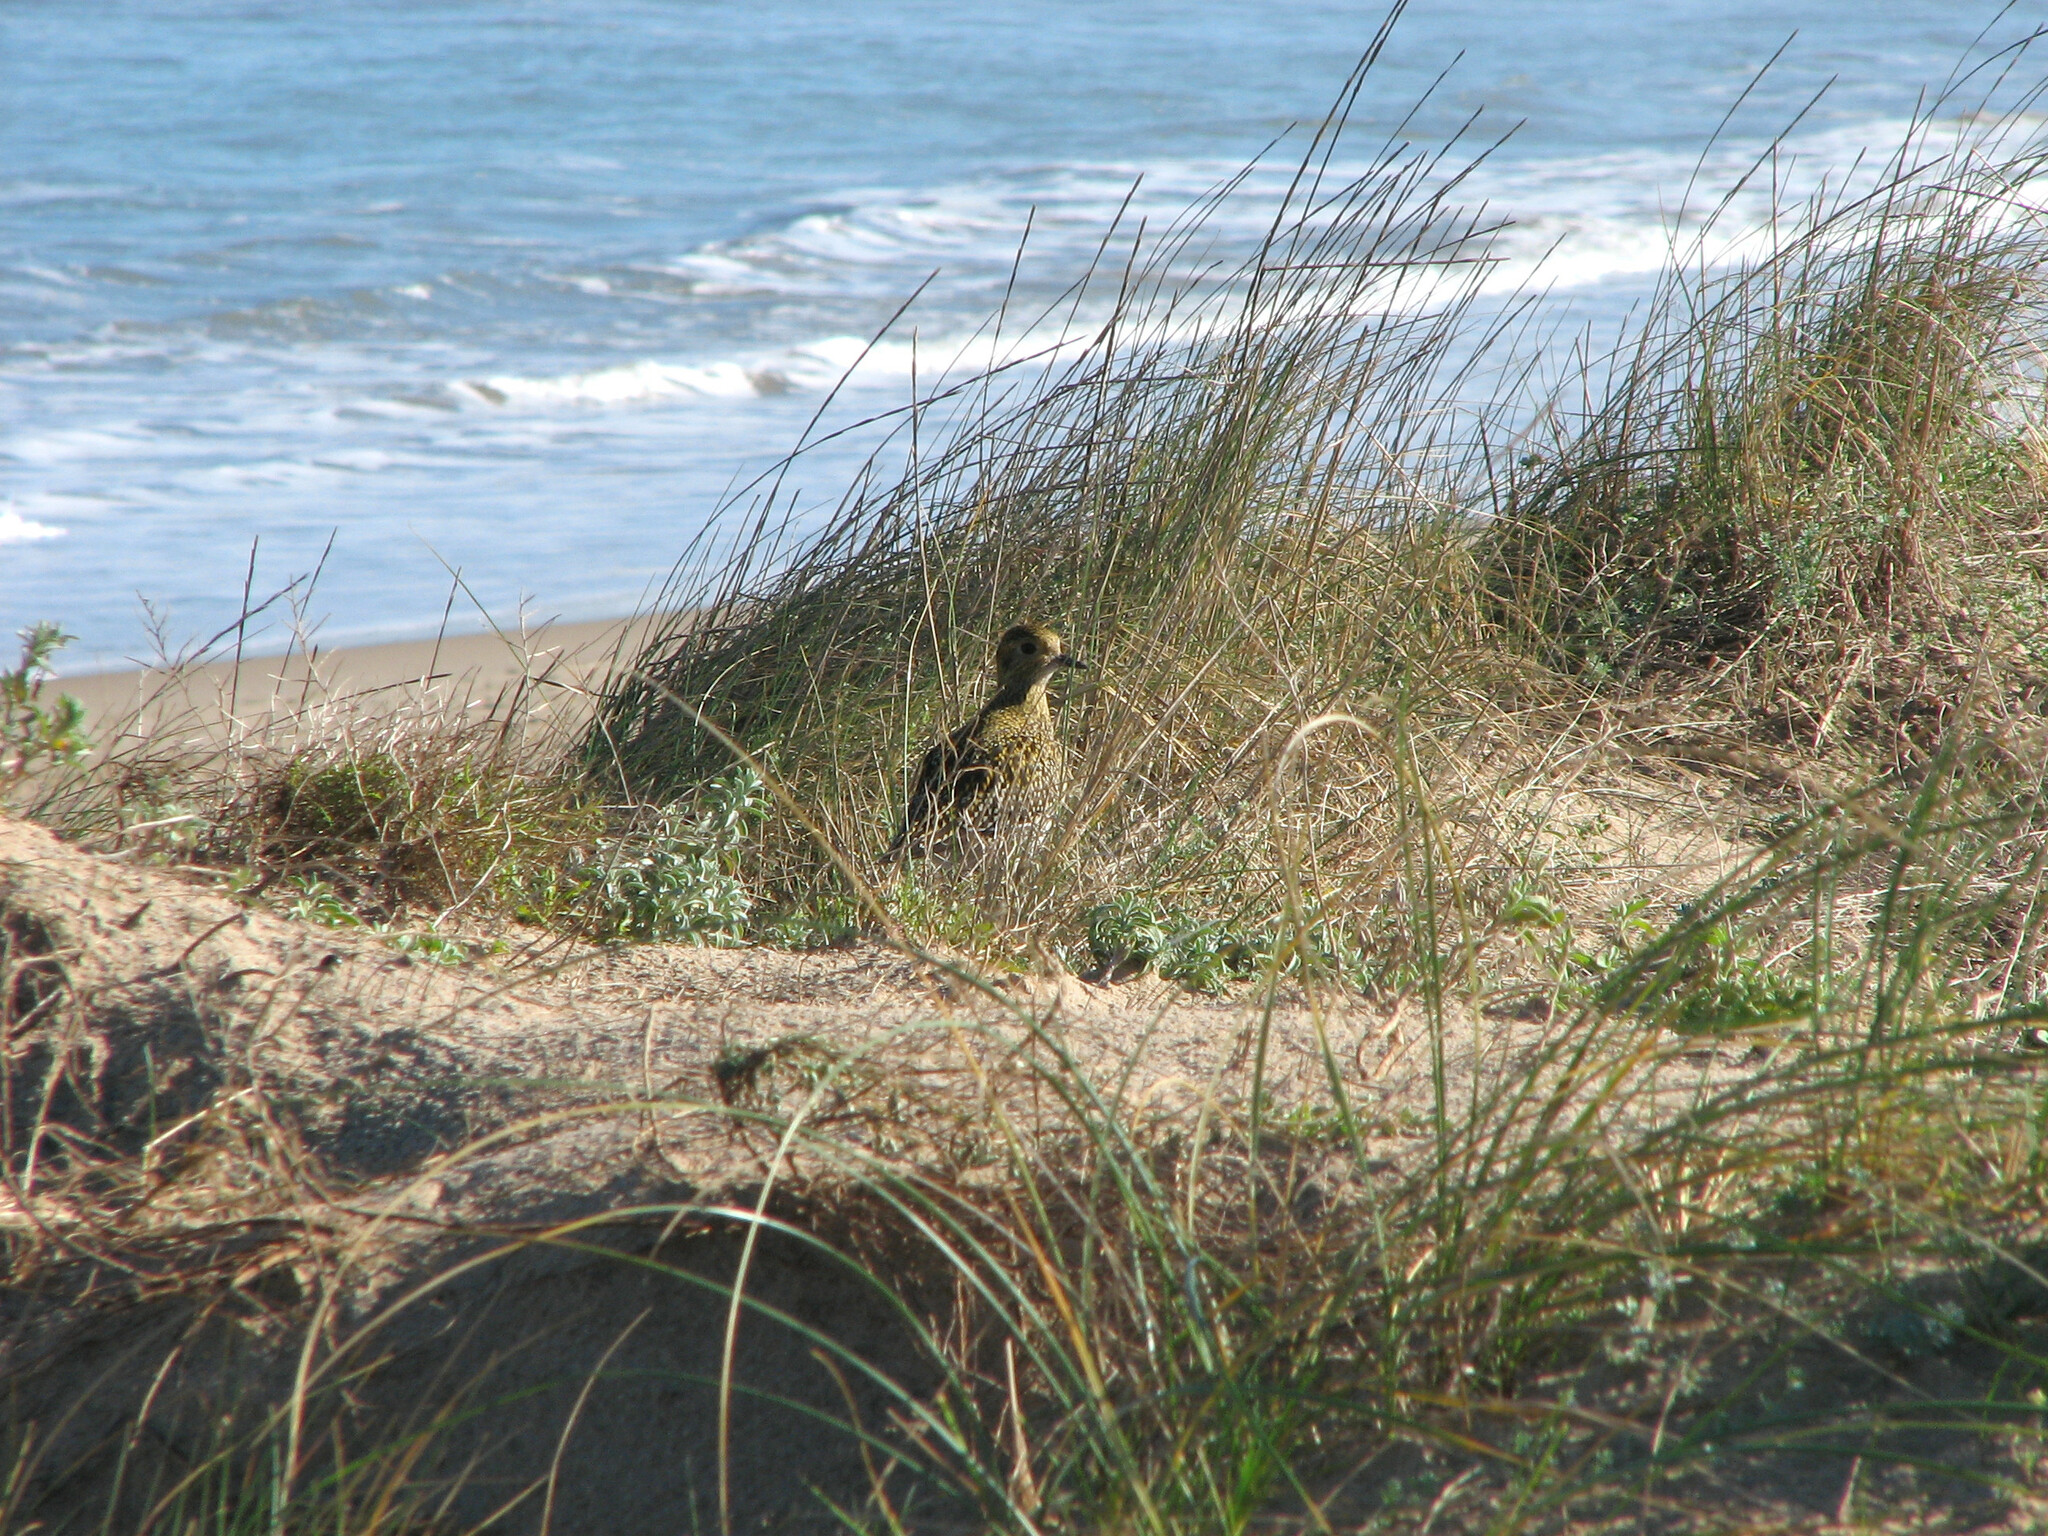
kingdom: Animalia
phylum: Chordata
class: Aves
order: Charadriiformes
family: Charadriidae
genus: Pluvialis
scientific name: Pluvialis apricaria
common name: European golden plover
